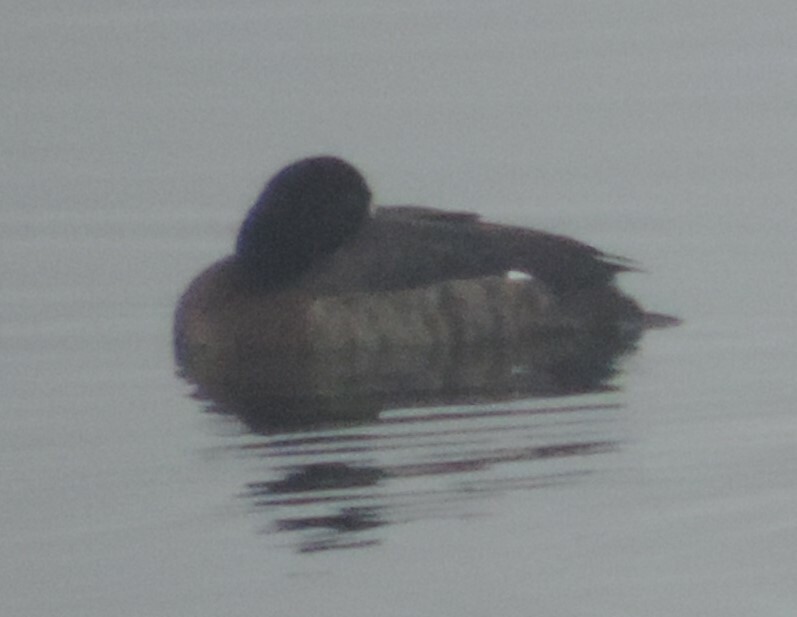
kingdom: Animalia
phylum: Chordata
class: Aves
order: Anseriformes
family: Anatidae
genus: Aythya
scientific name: Aythya marila
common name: Greater scaup
